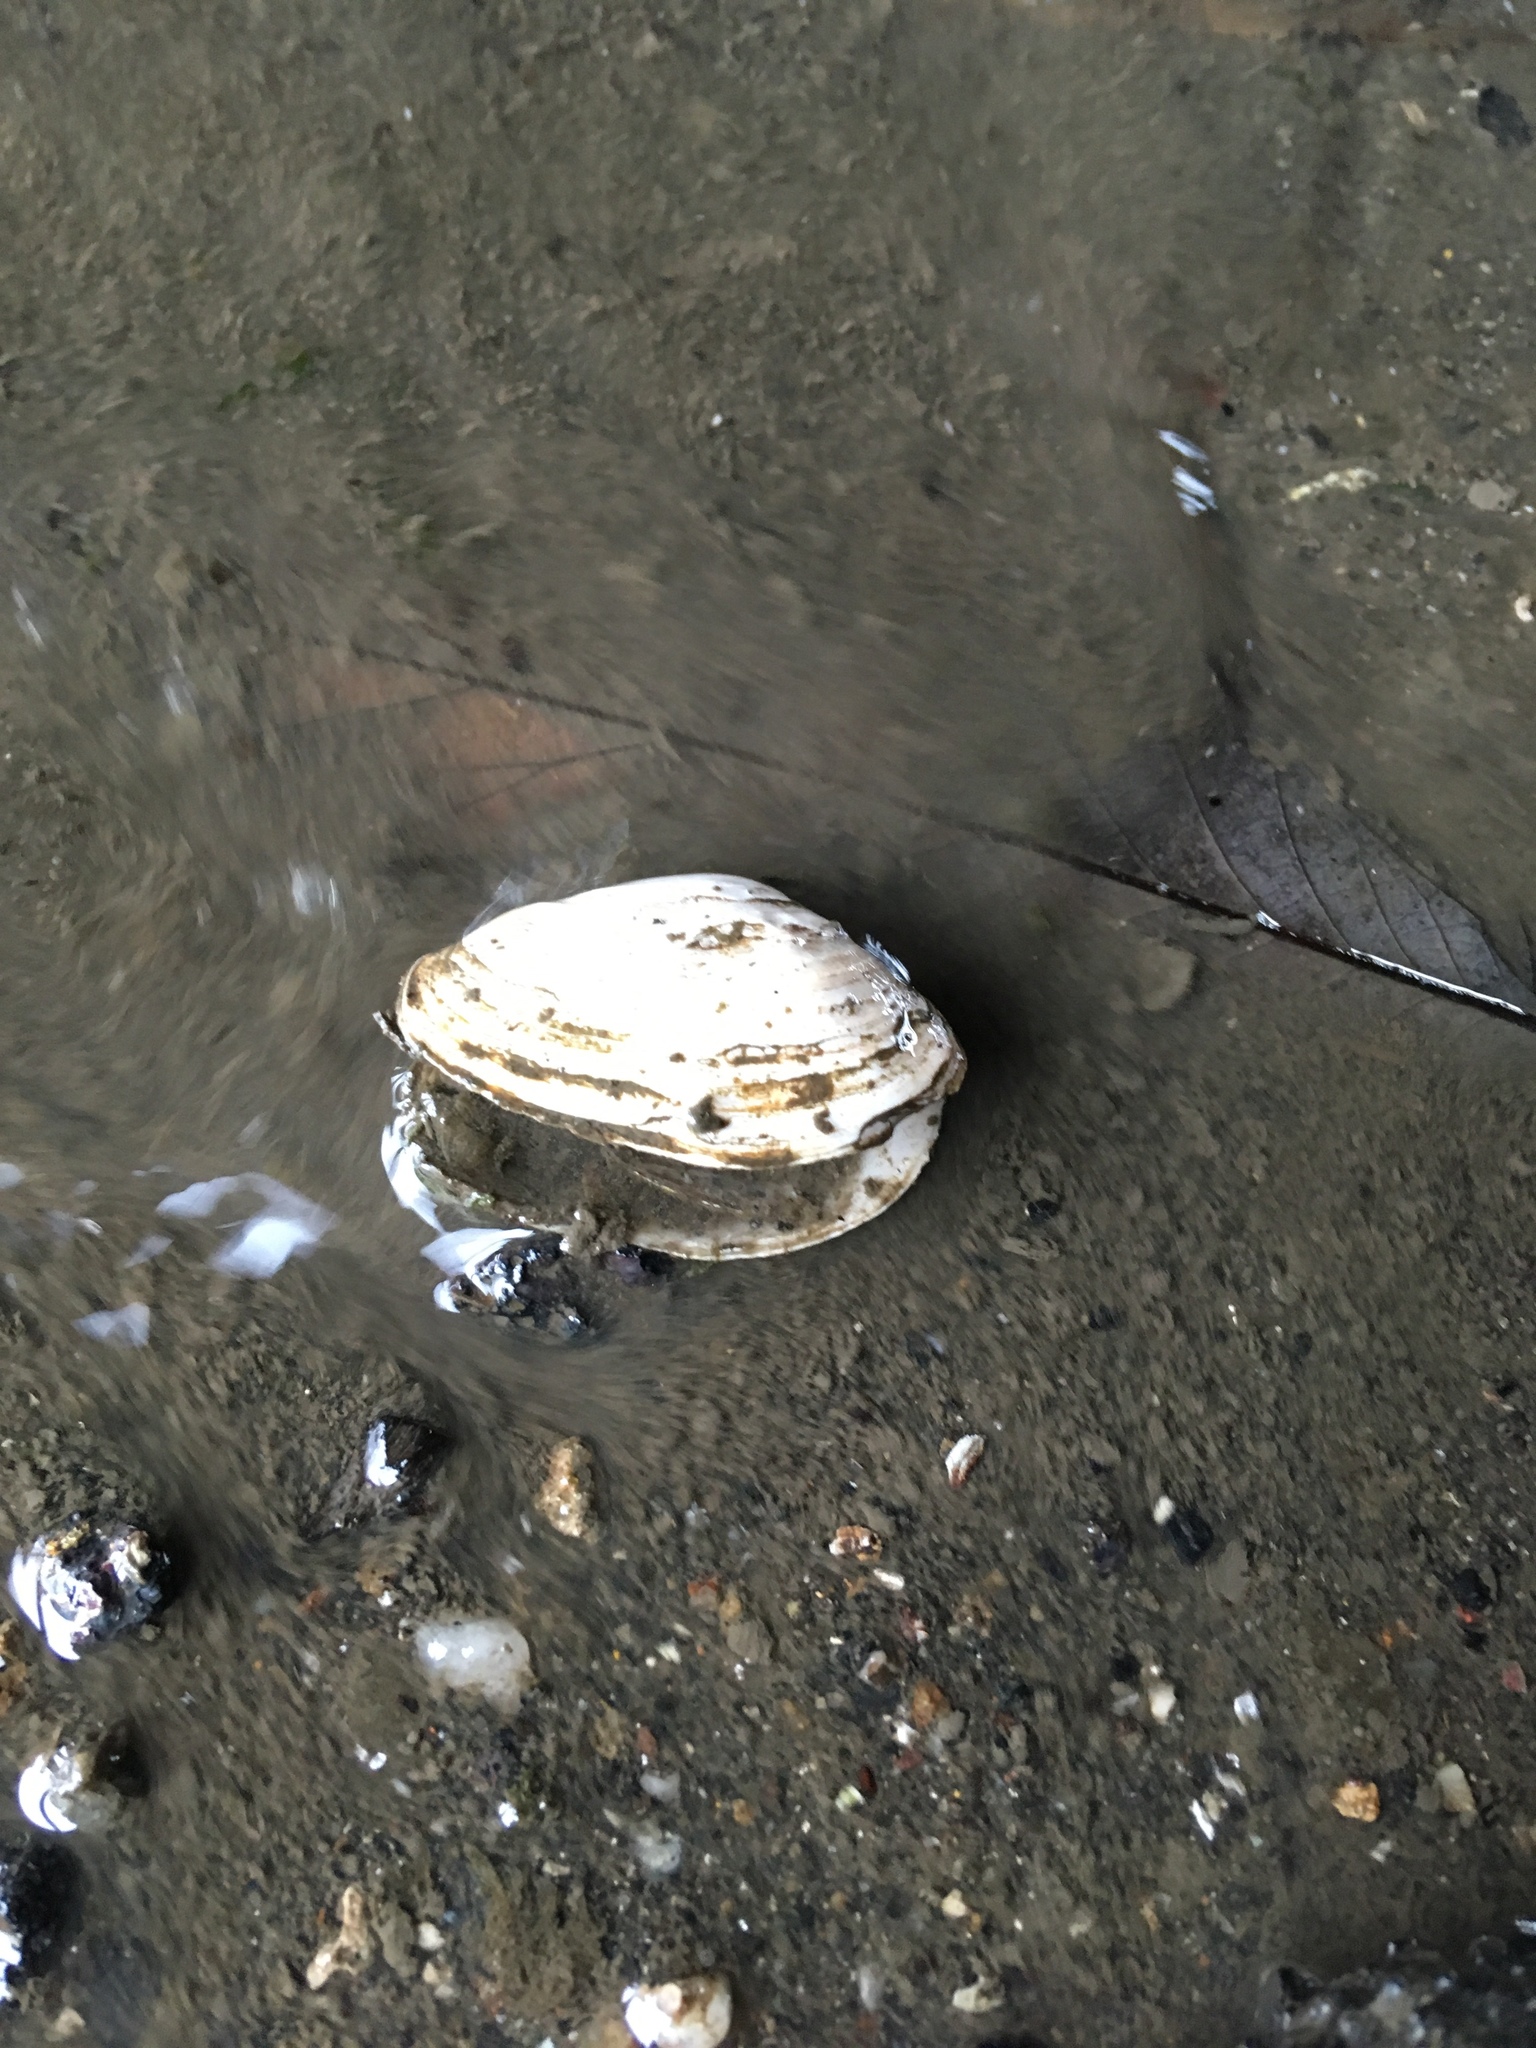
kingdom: Animalia
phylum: Mollusca
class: Bivalvia
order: Myida
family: Myidae
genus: Mya
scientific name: Mya arenaria
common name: Soft-shelled clam
